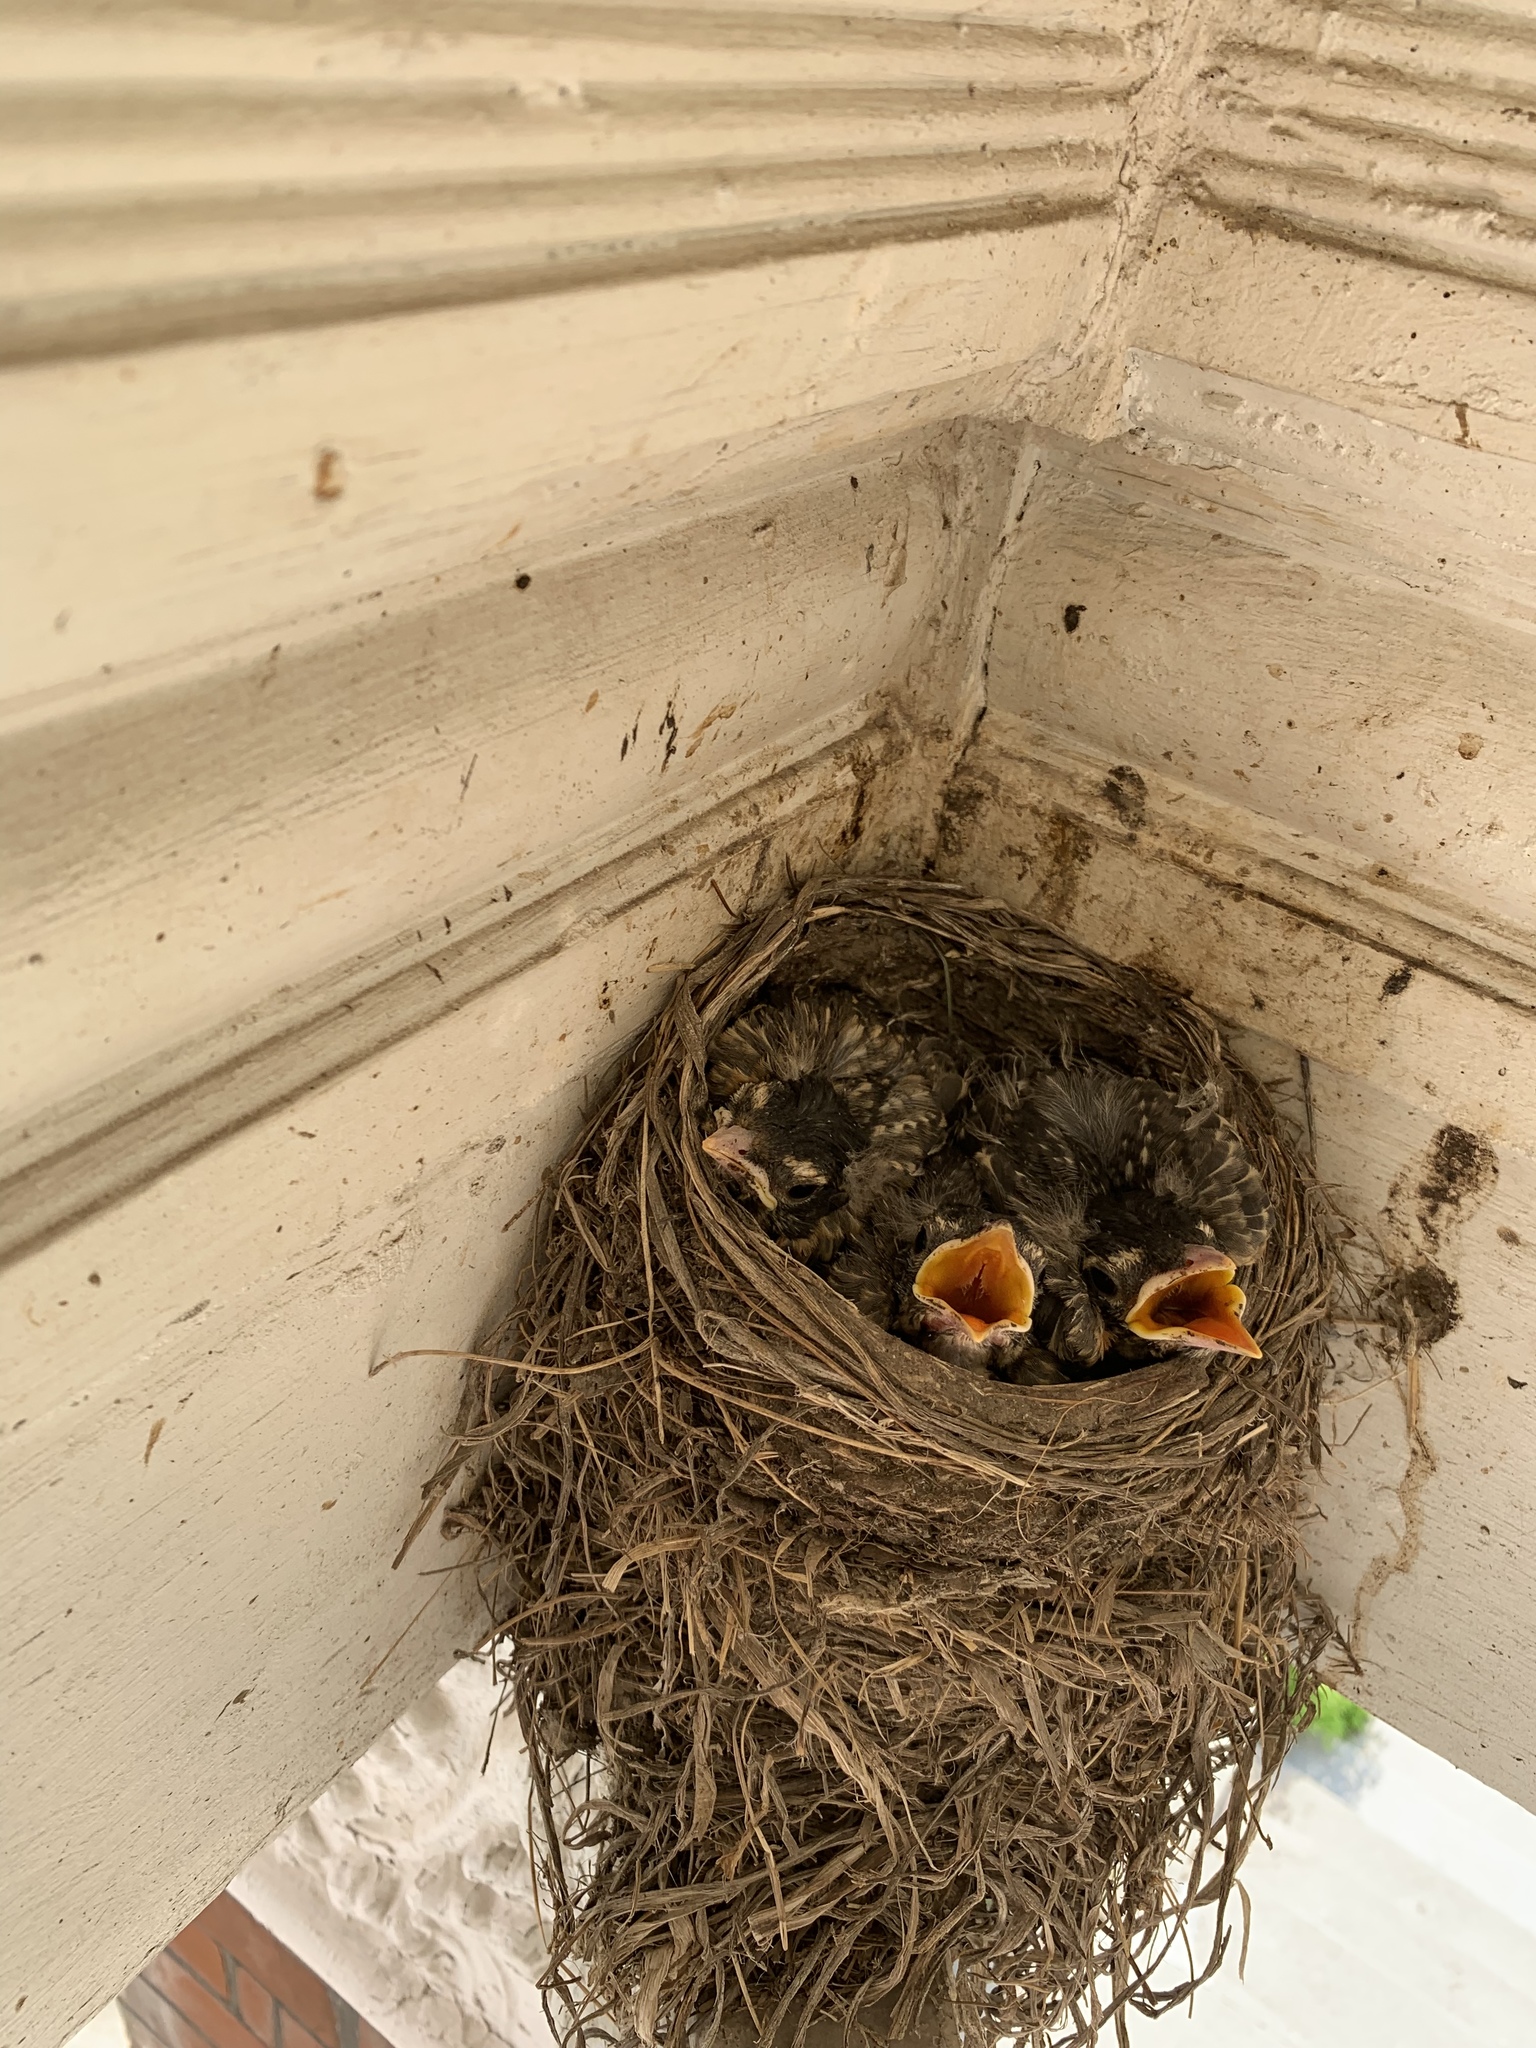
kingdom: Animalia
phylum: Chordata
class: Aves
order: Passeriformes
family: Turdidae
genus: Turdus
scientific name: Turdus migratorius
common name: American robin
